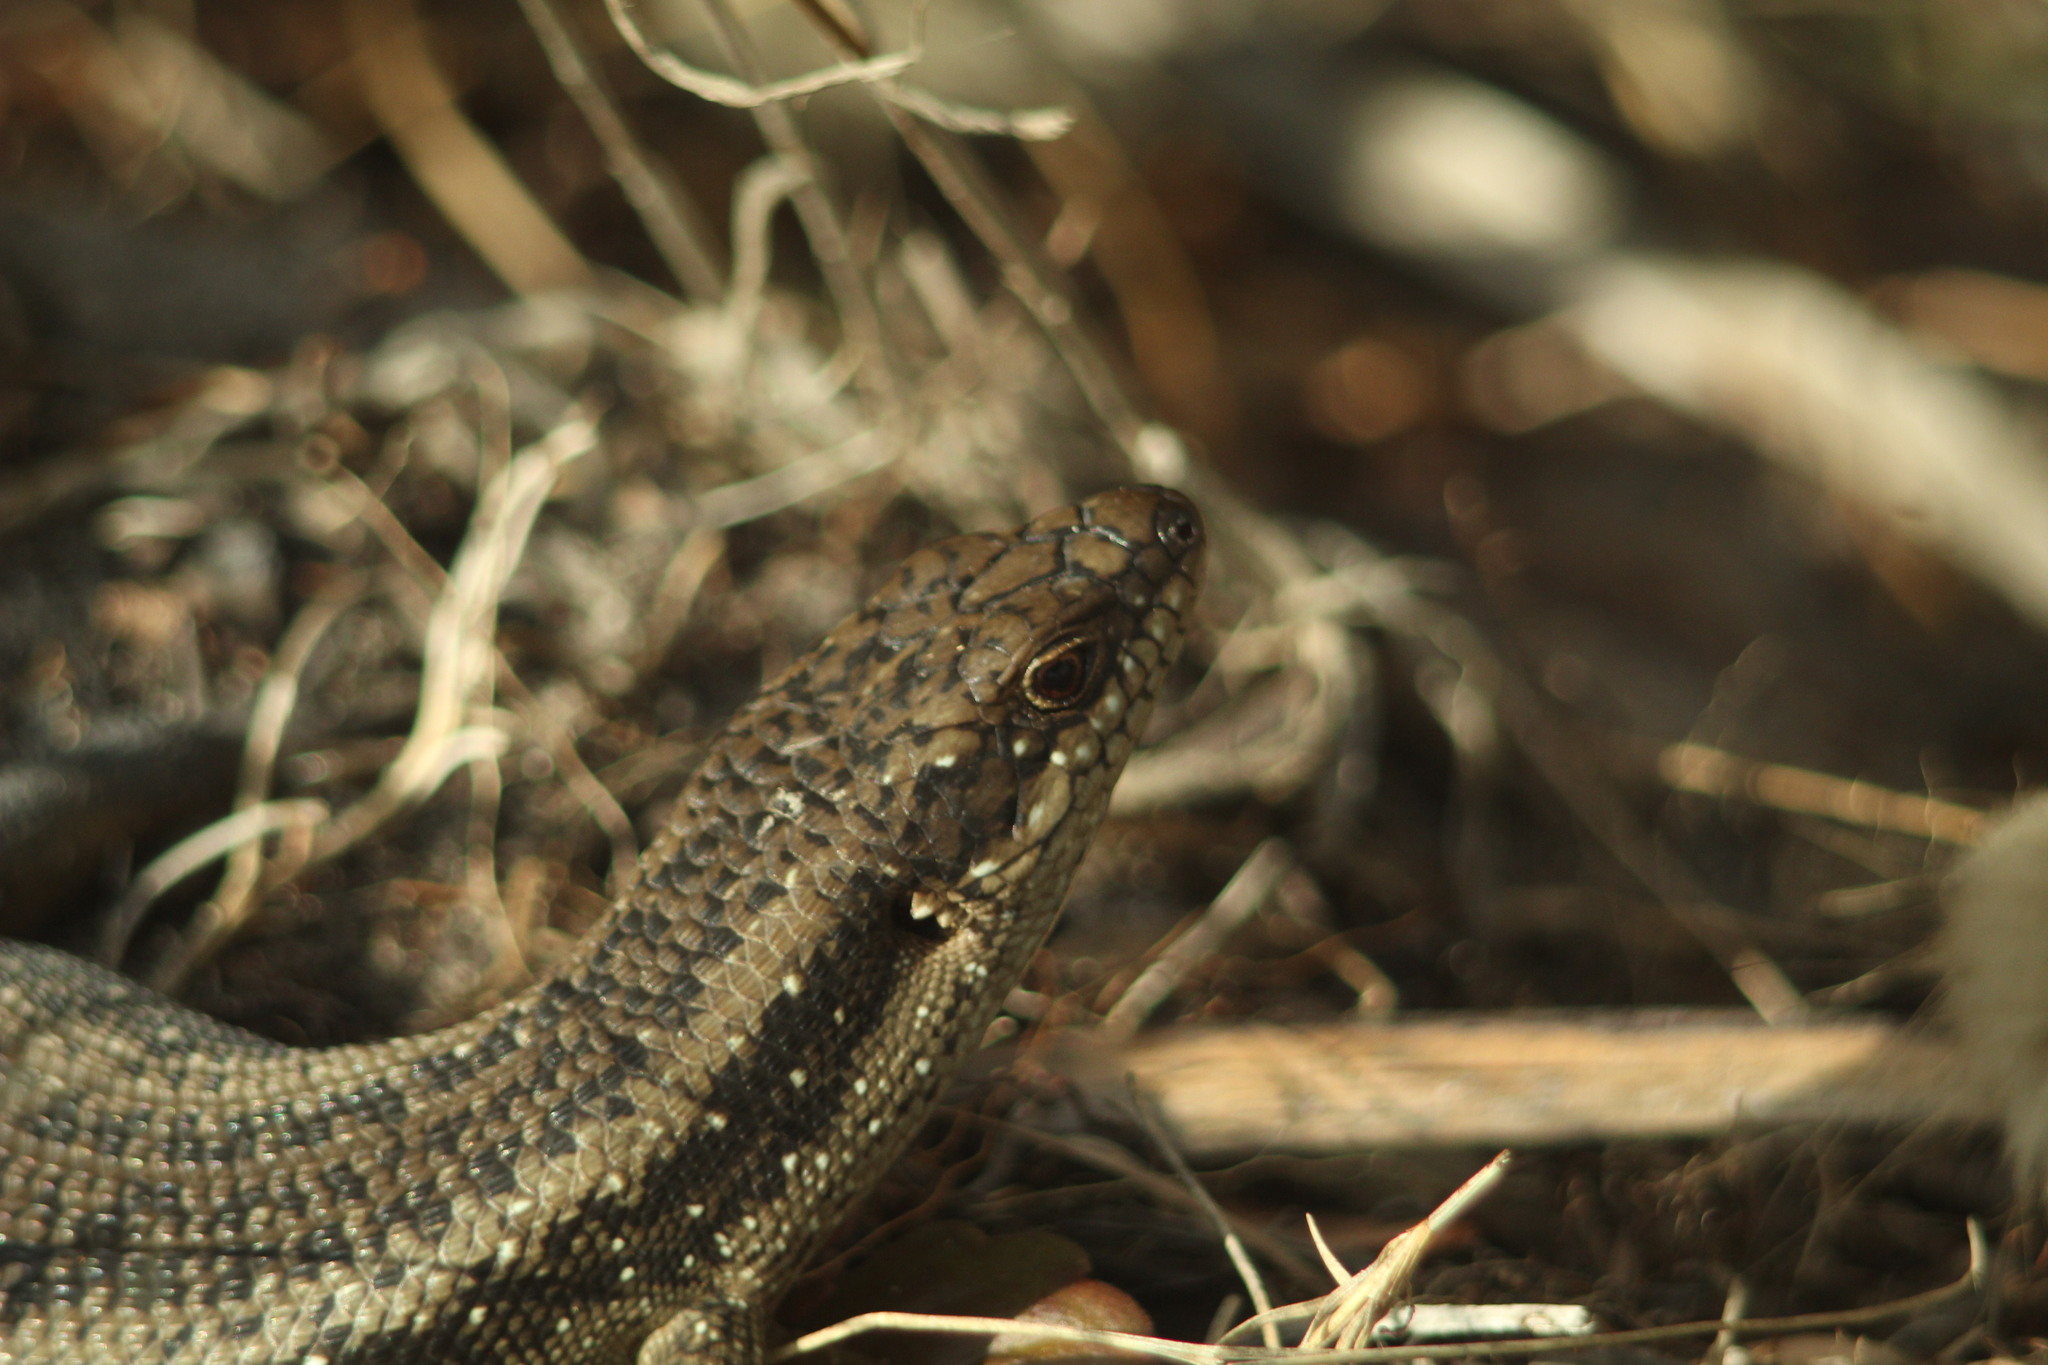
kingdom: Animalia
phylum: Chordata
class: Squamata
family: Scincidae
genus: Egernia
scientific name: Egernia napoleonis
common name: South-western crevice skink
